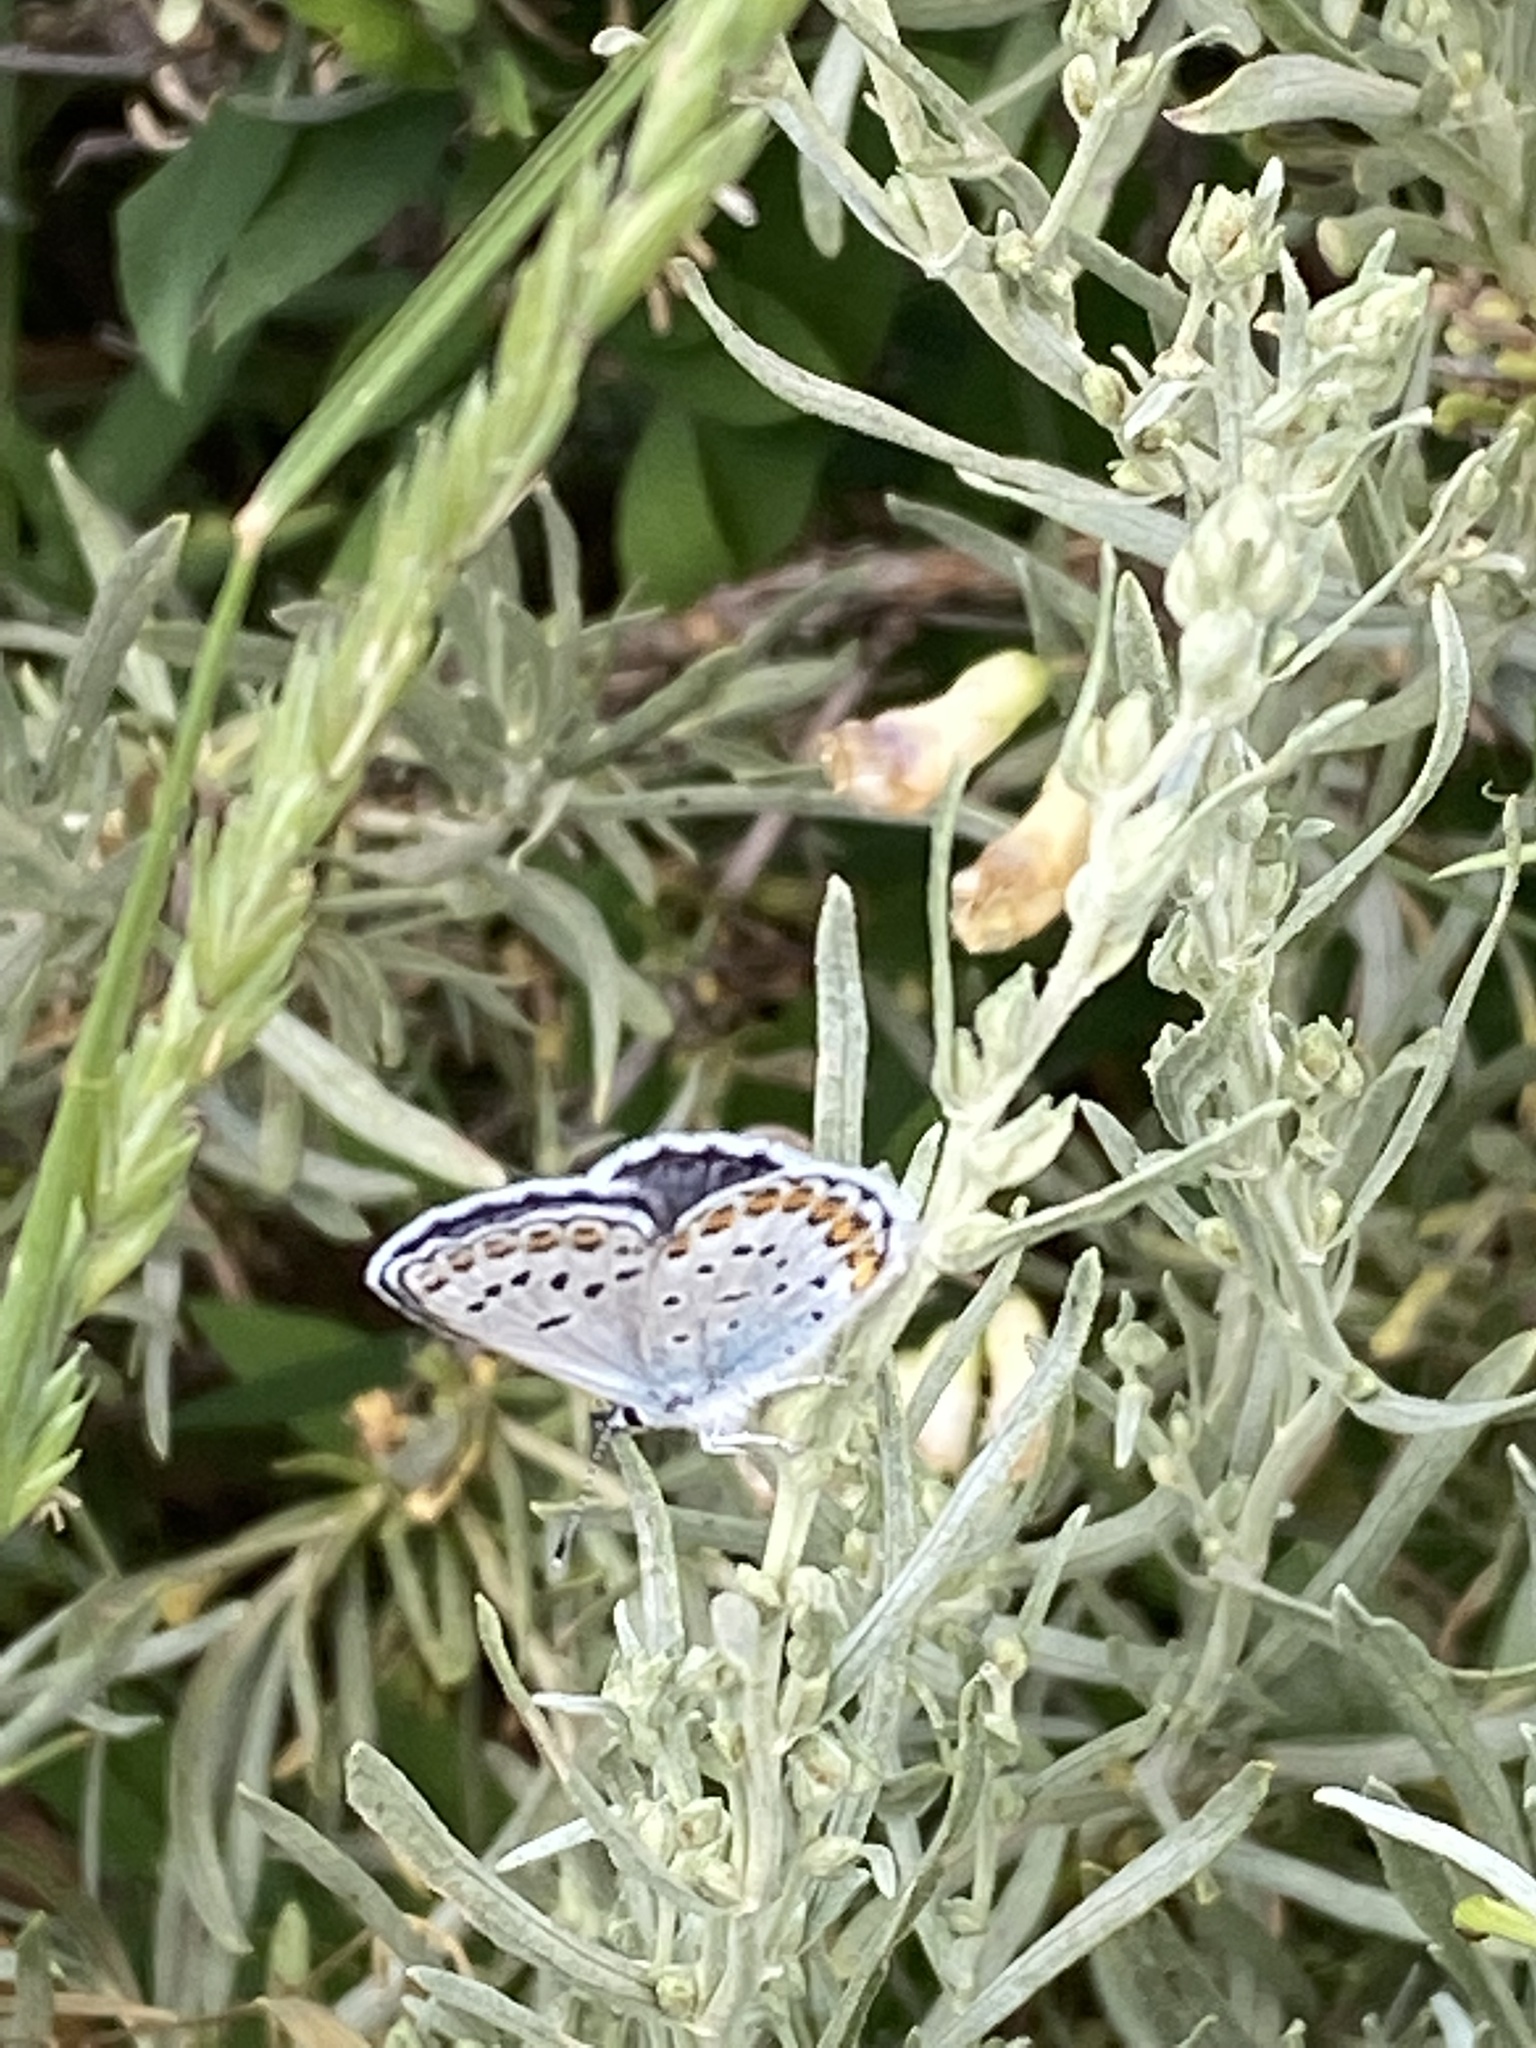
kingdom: Animalia
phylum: Arthropoda
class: Insecta
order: Lepidoptera
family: Lycaenidae
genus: Lycaeides
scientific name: Lycaeides melissa
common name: Melissa blue
